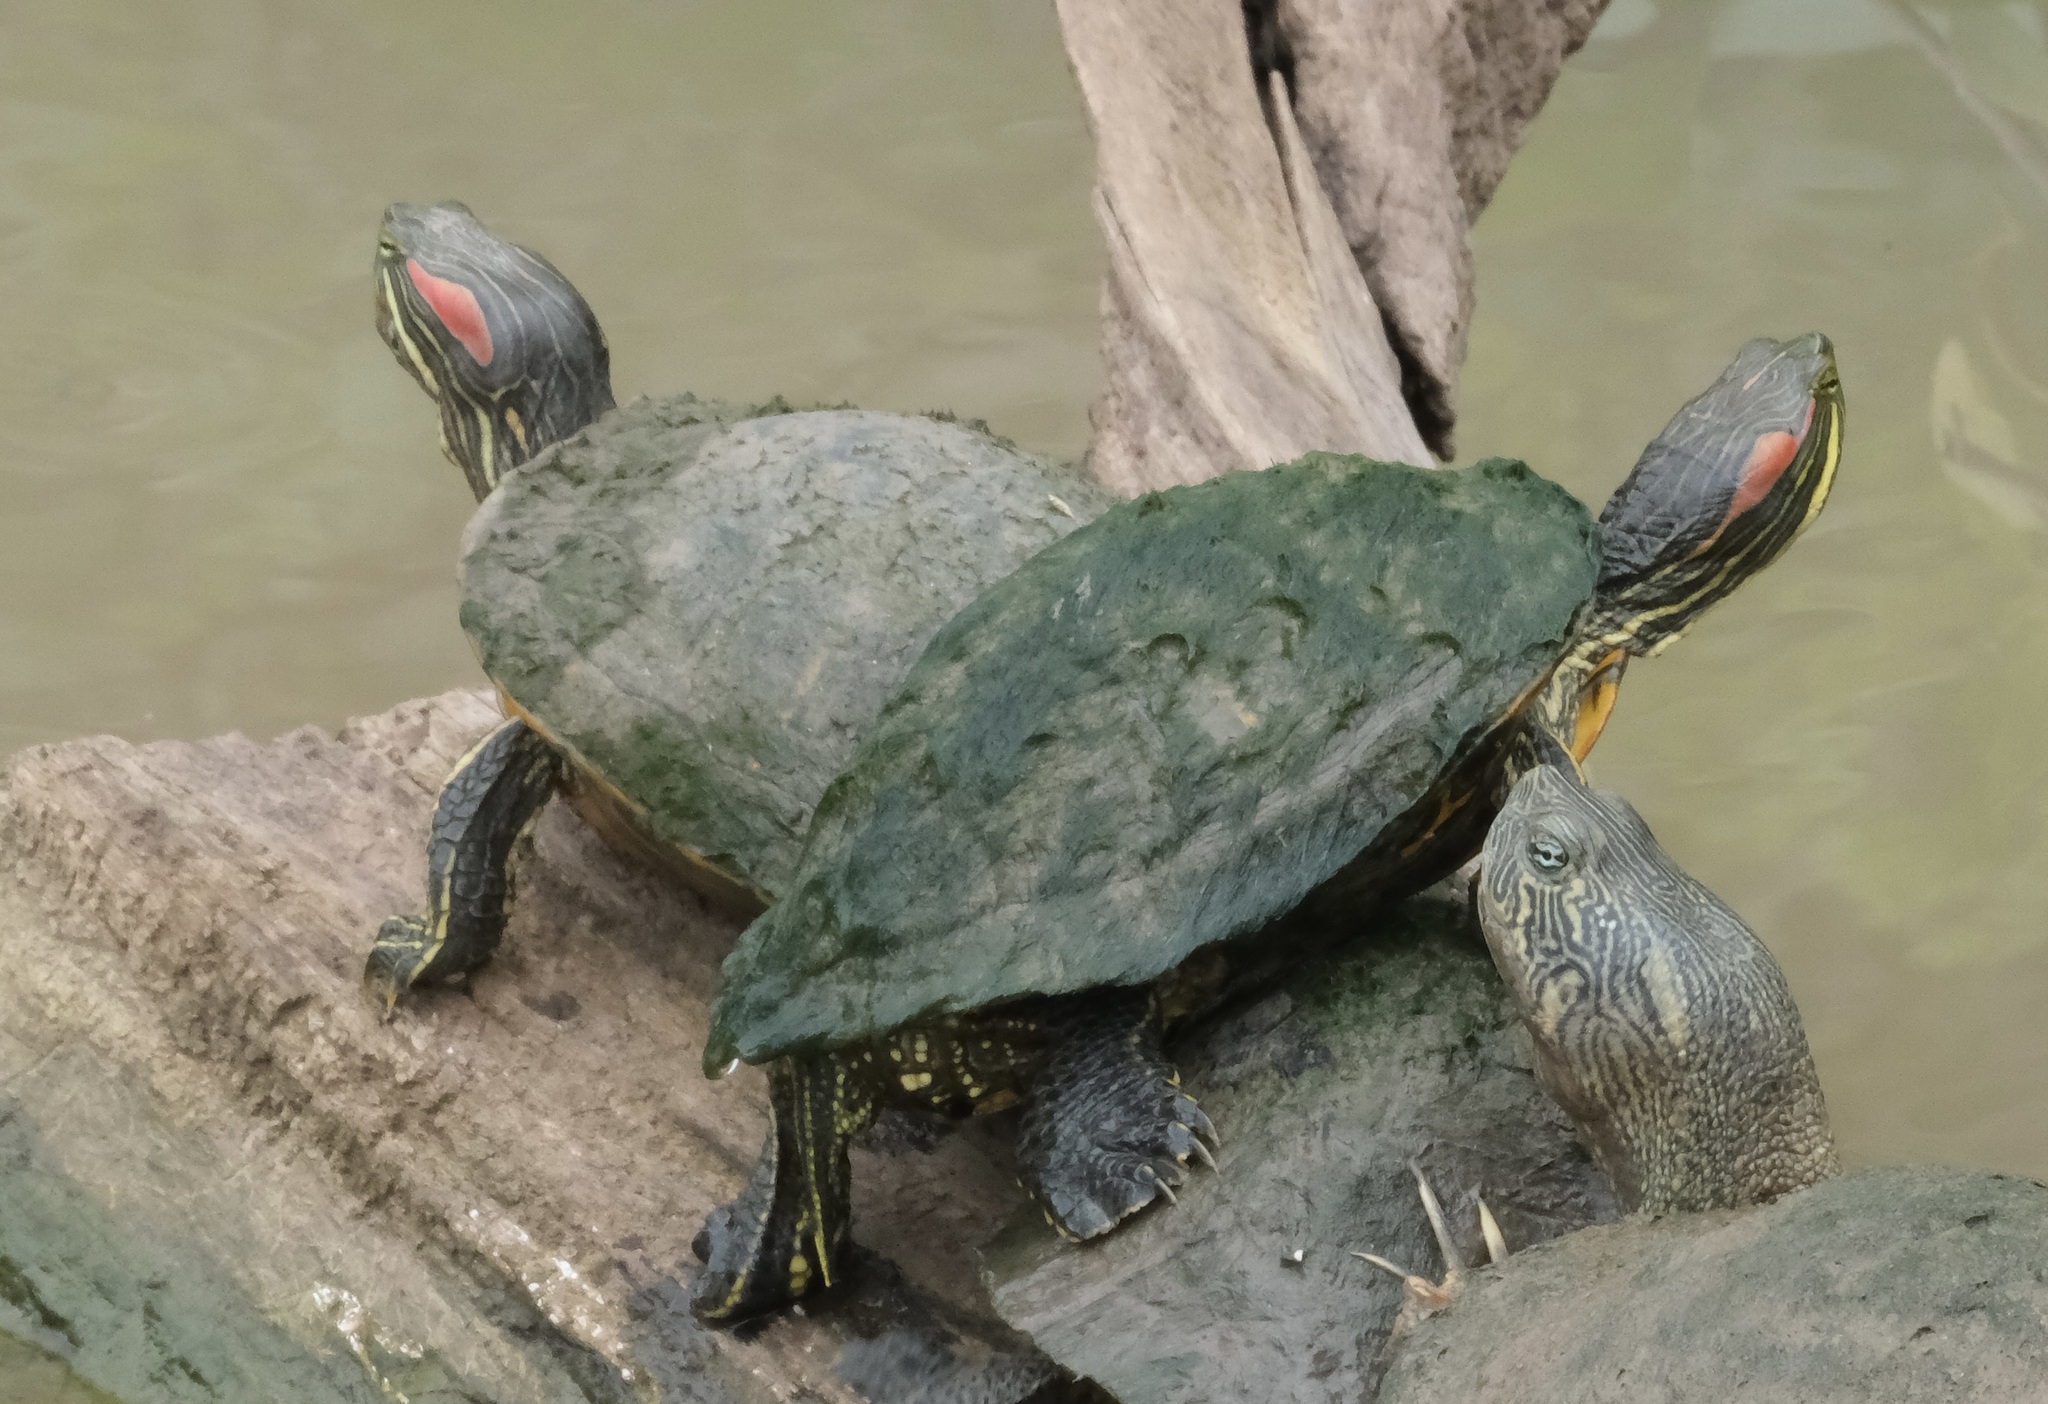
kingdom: Animalia
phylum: Chordata
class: Testudines
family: Emydidae
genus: Trachemys
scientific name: Trachemys scripta
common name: Slider
